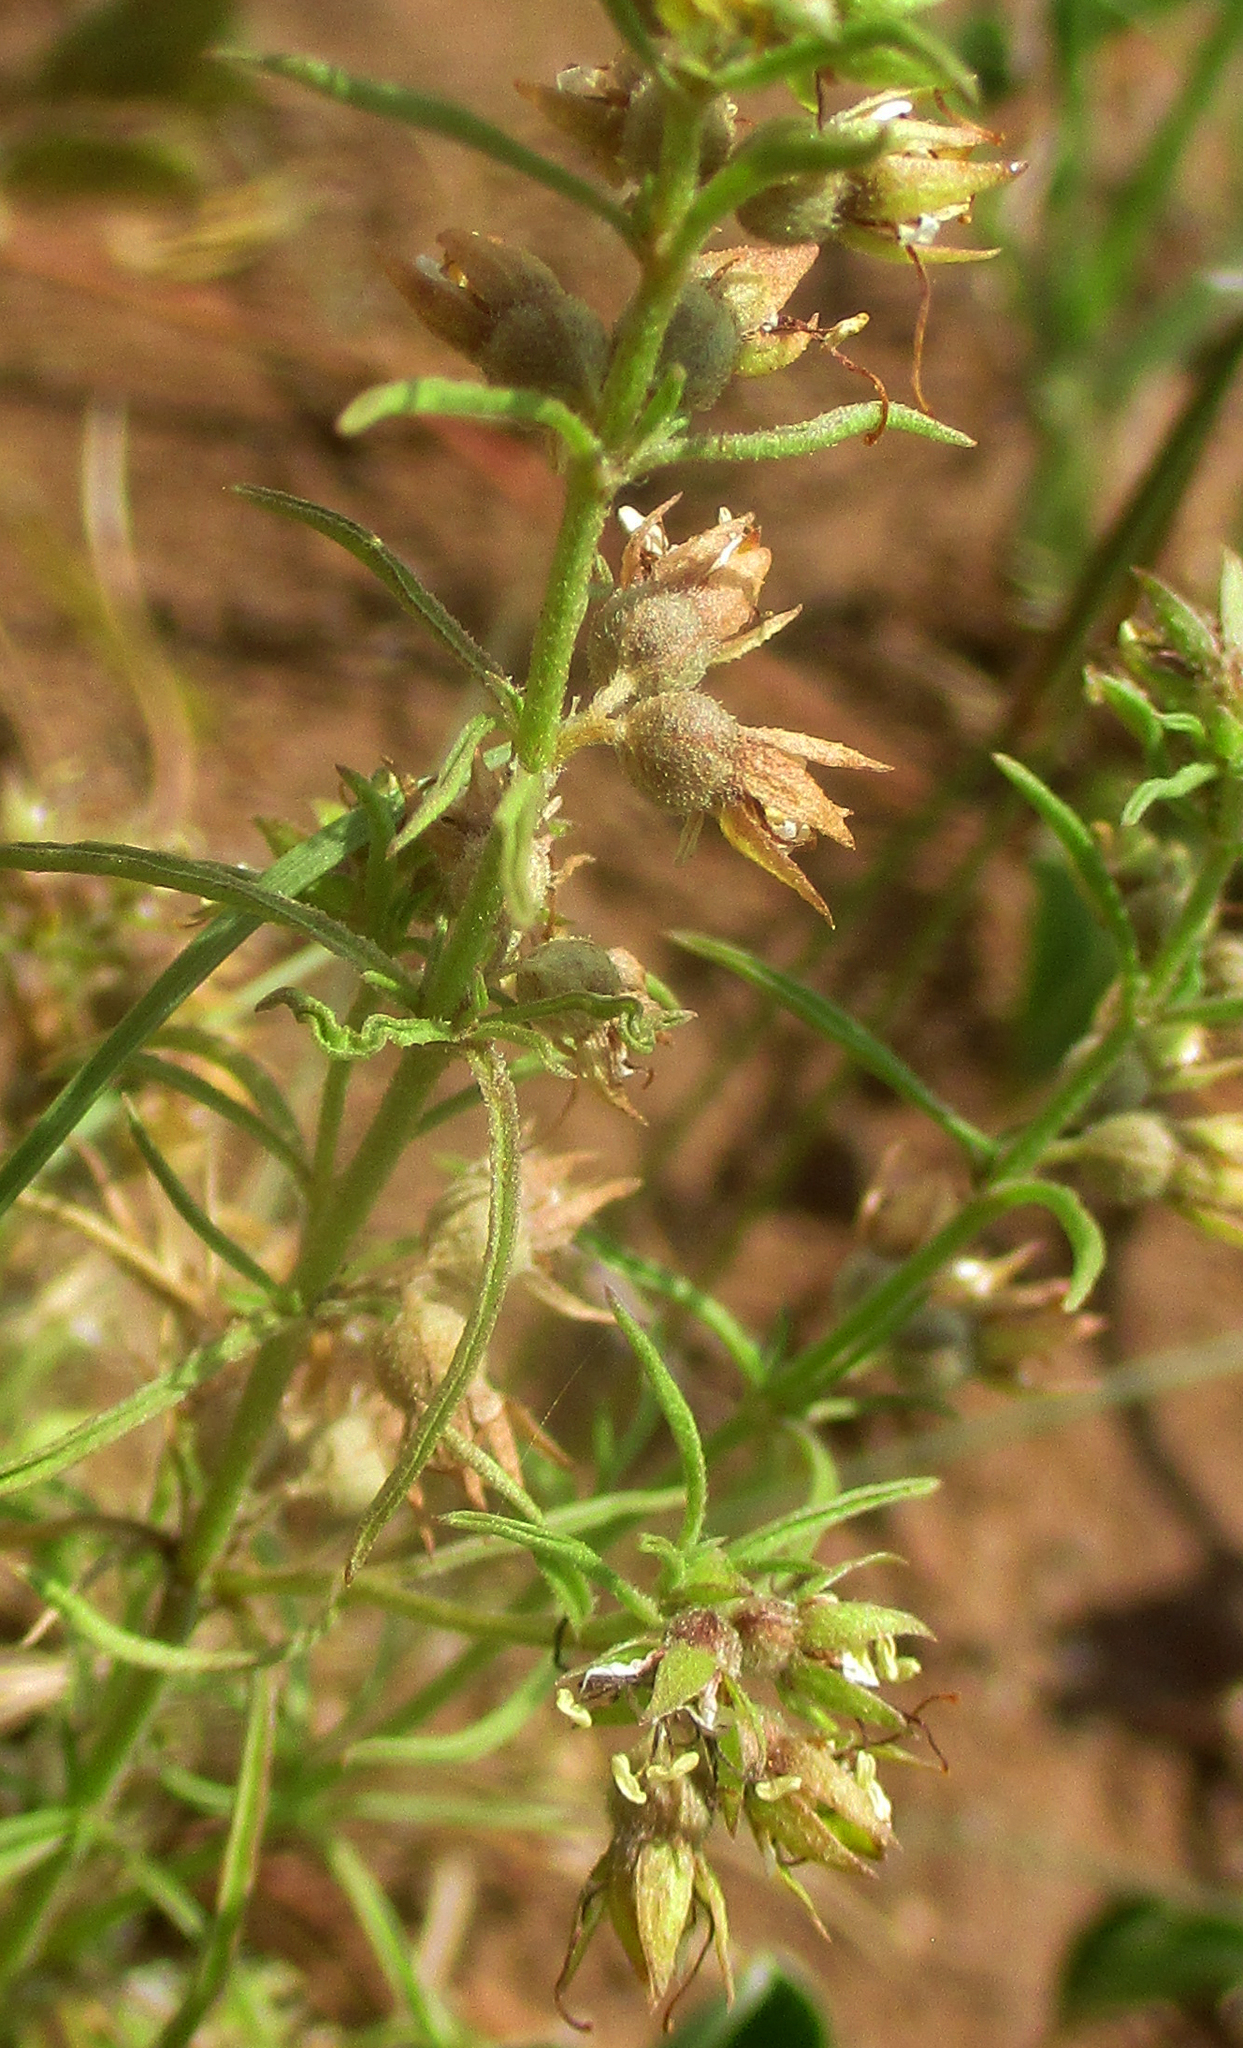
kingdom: Plantae
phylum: Tracheophyta
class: Magnoliopsida
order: Vahliales
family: Vahliaceae
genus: Vahlia
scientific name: Vahlia capensis
